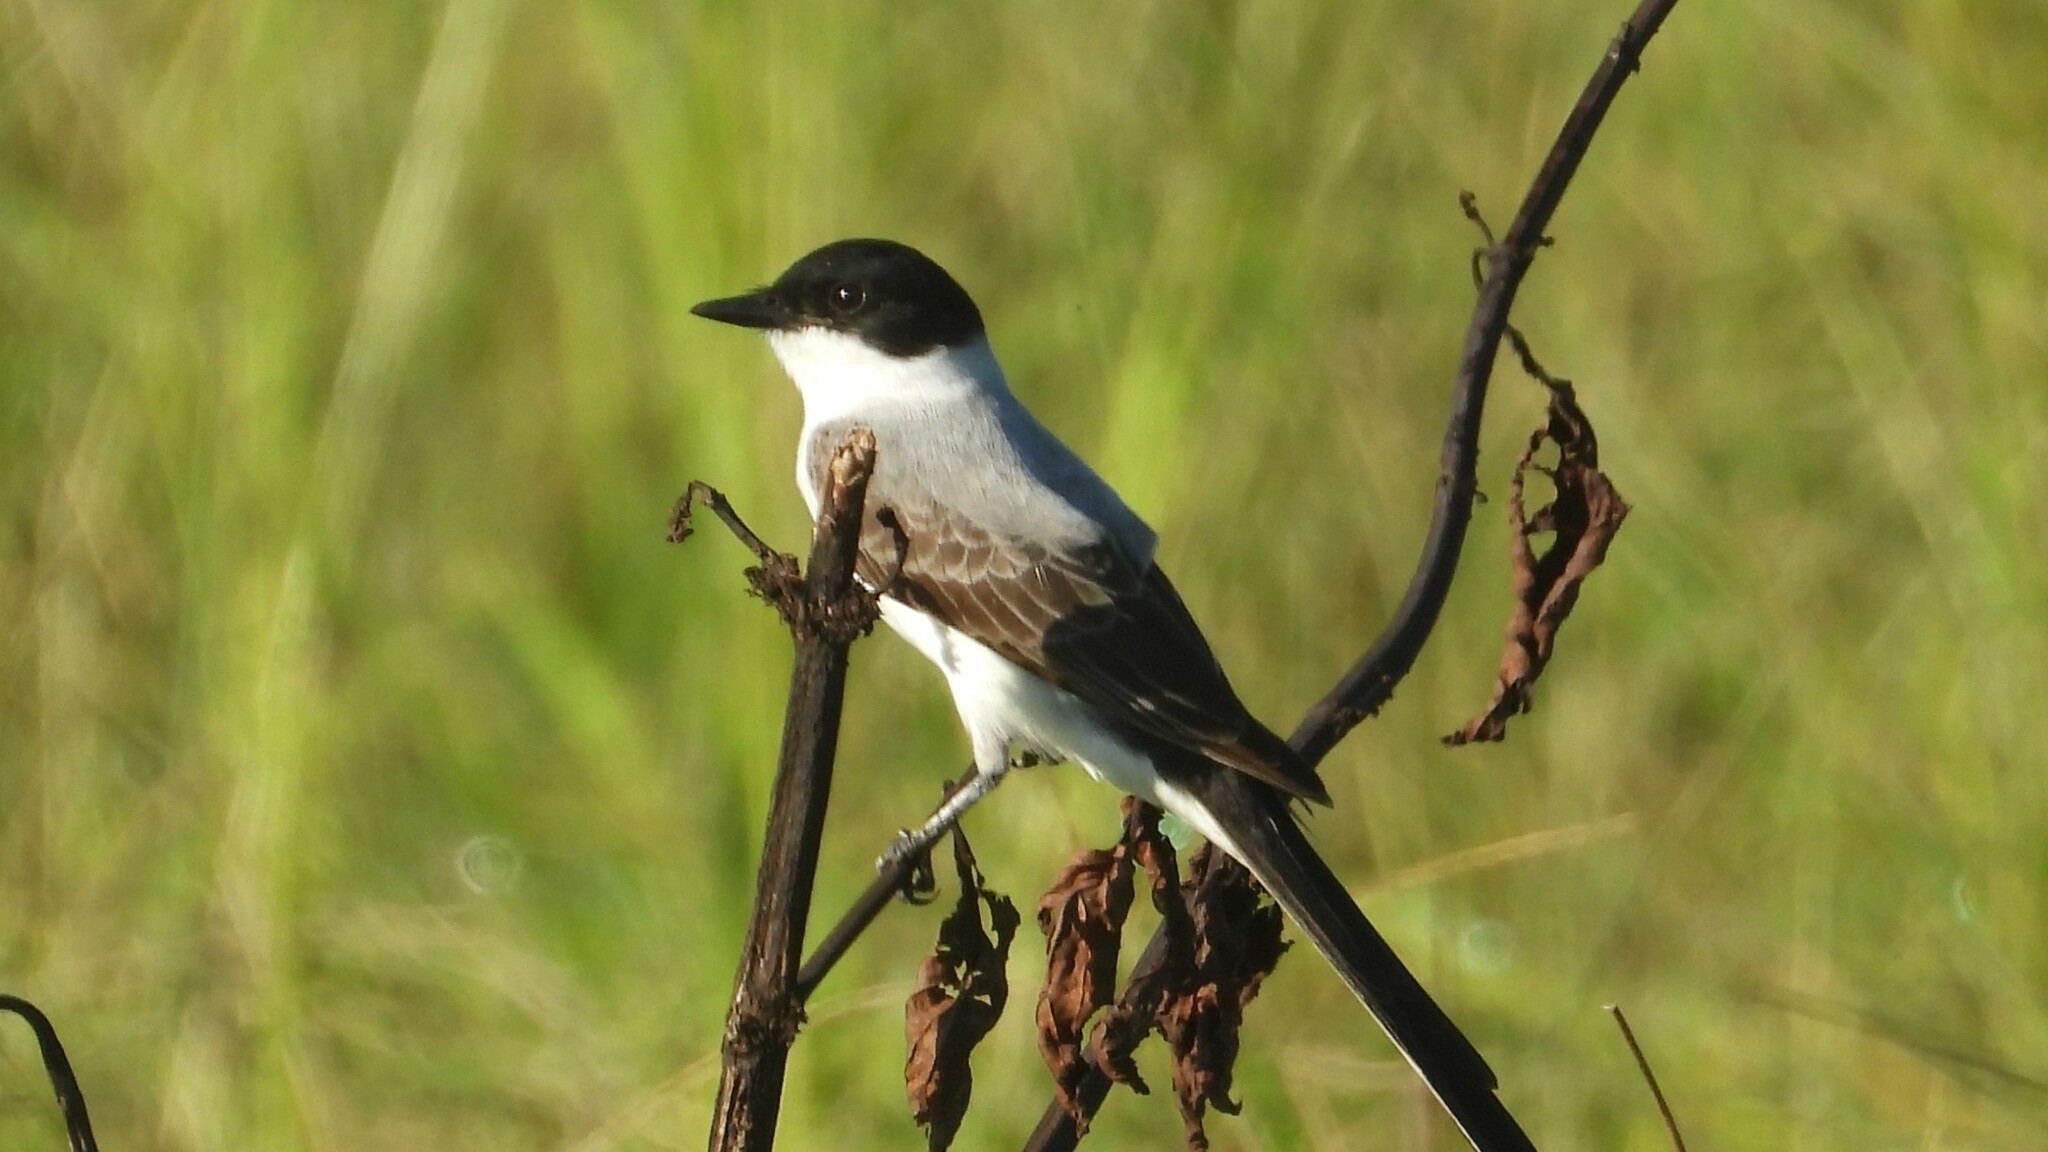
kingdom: Animalia
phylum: Chordata
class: Aves
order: Passeriformes
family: Tyrannidae
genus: Tyrannus
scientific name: Tyrannus savana
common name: Fork-tailed flycatcher
